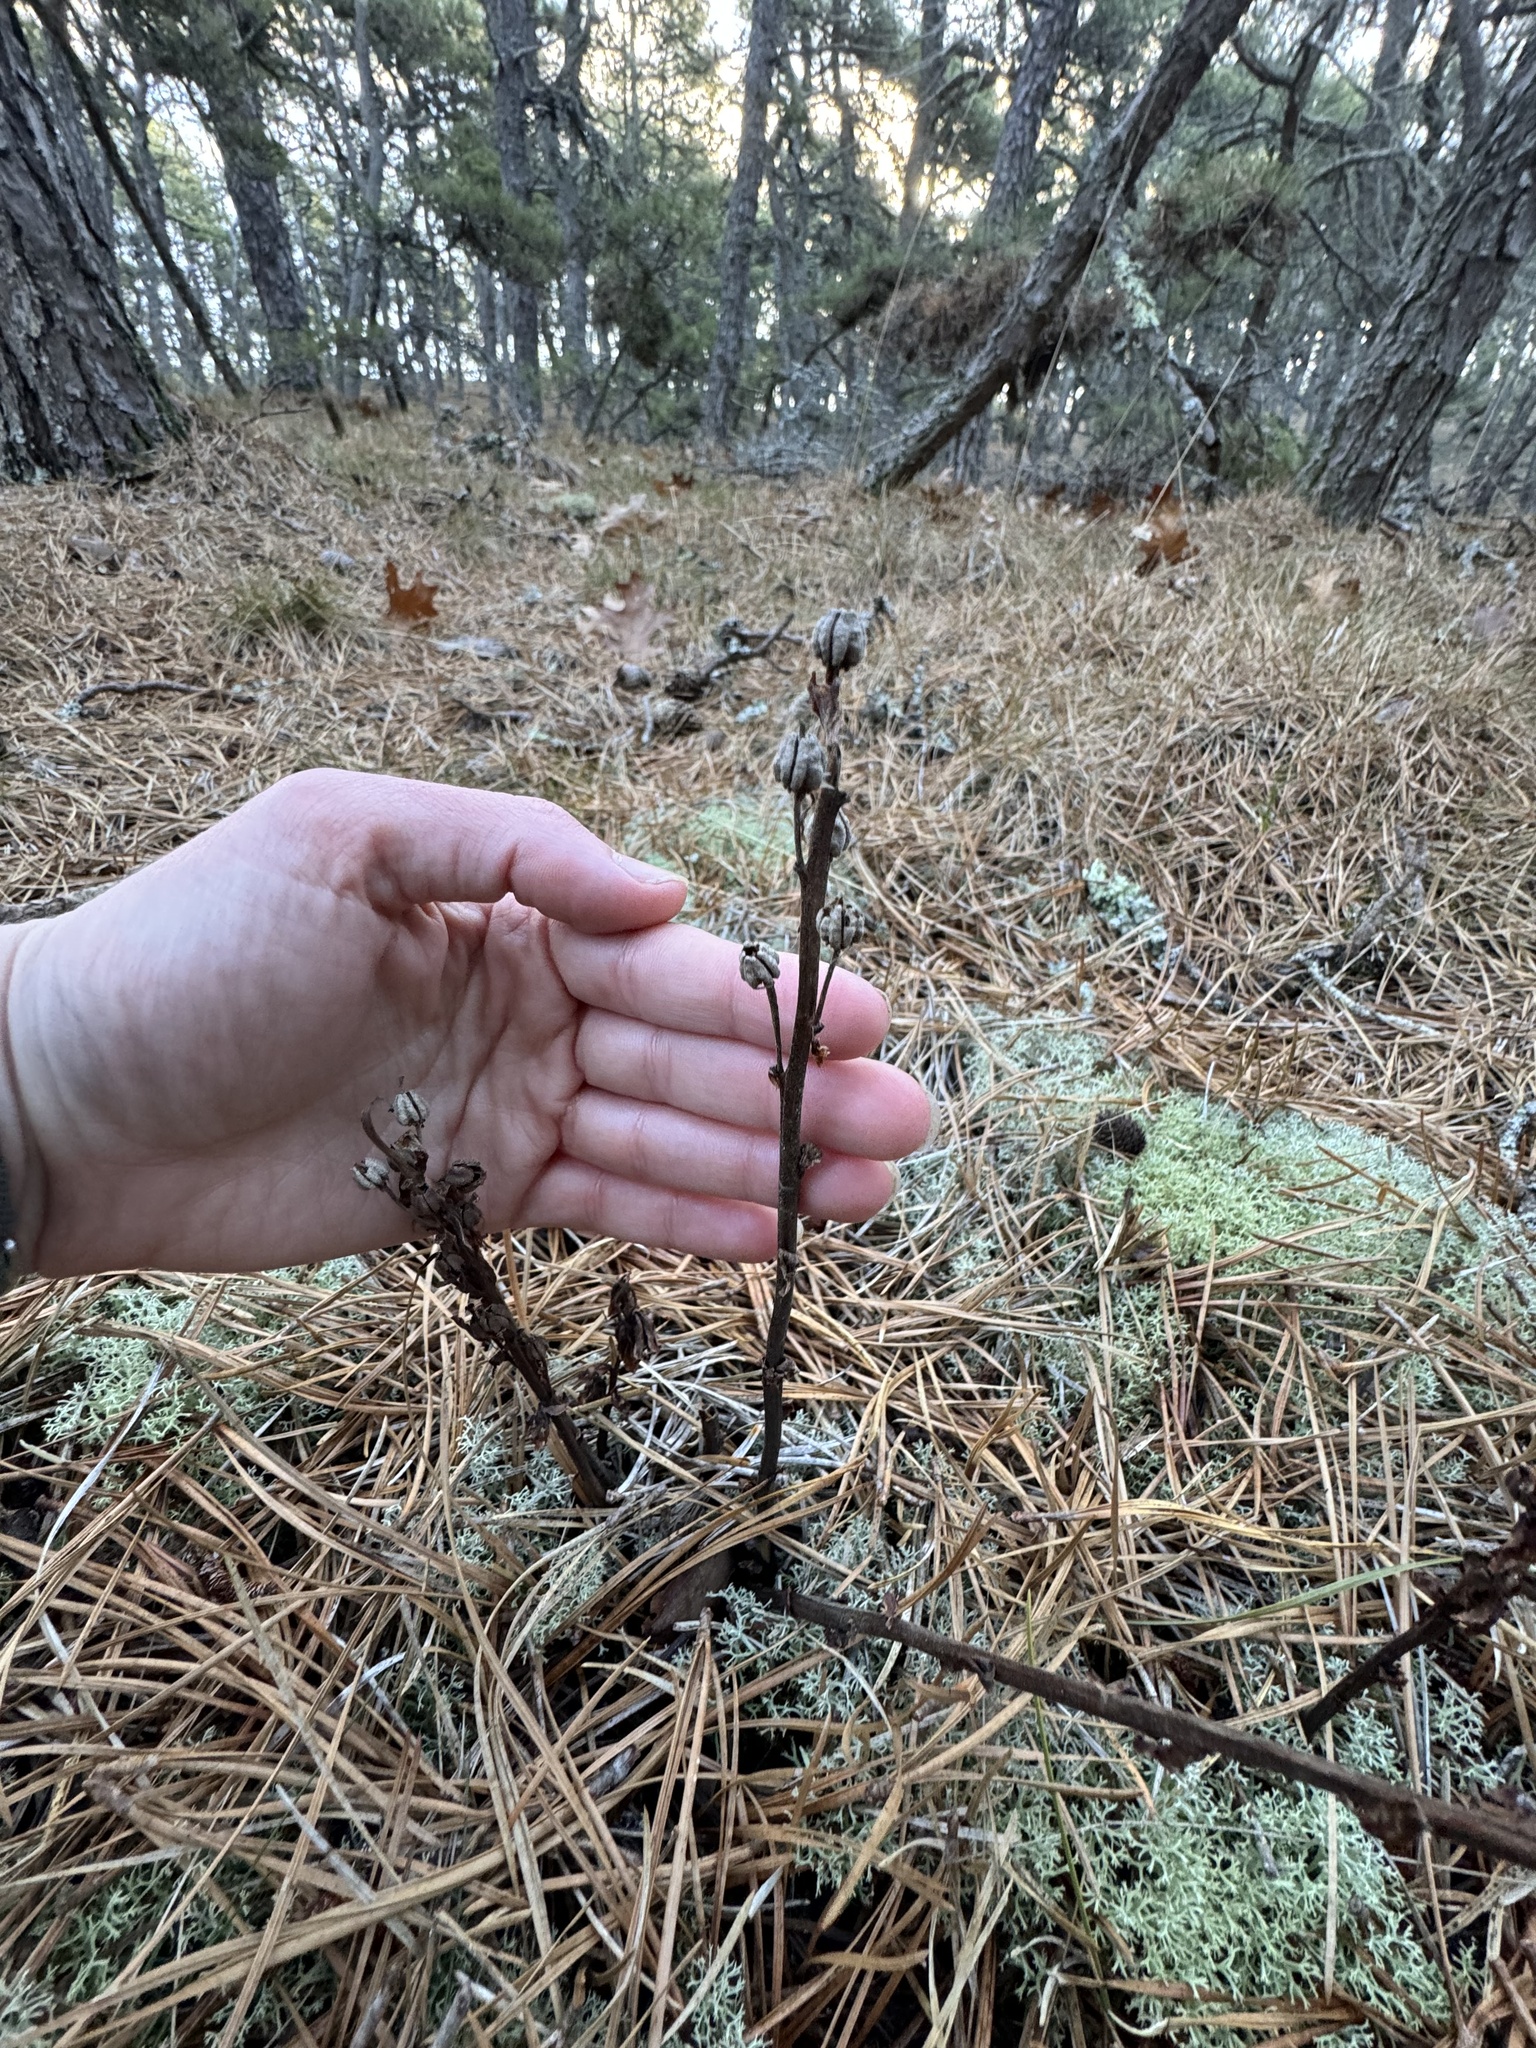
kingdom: Plantae
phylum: Tracheophyta
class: Magnoliopsida
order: Ericales
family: Ericaceae
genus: Hypopitys
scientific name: Hypopitys monotropa
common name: Yellow bird's-nest
